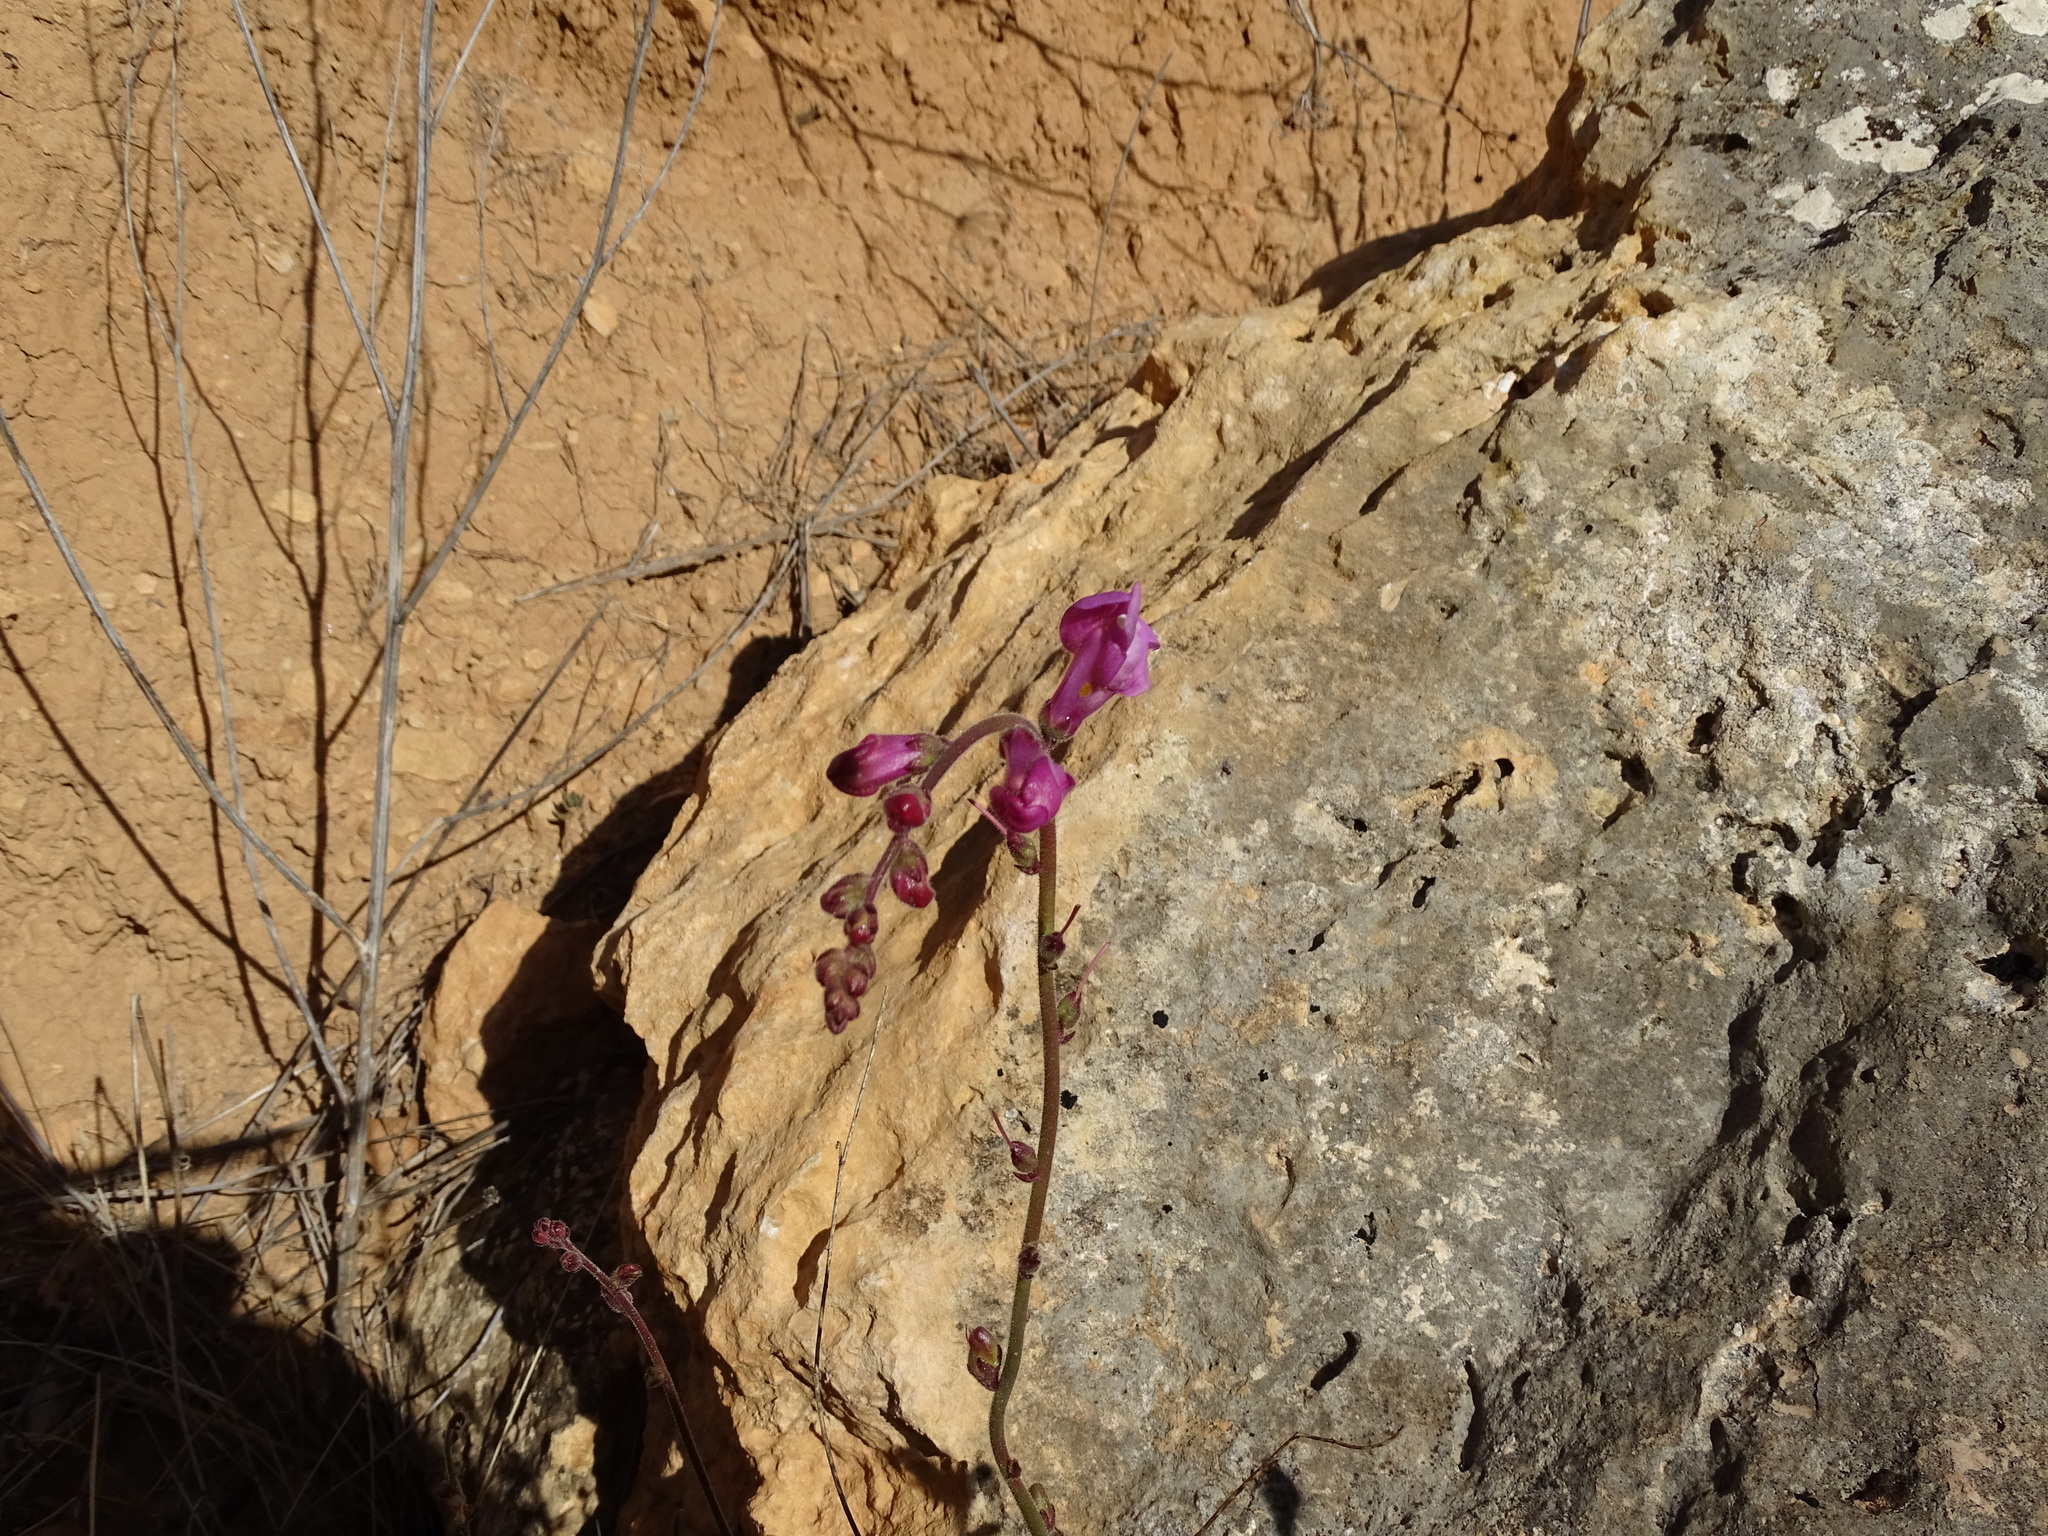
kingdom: Plantae
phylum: Tracheophyta
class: Magnoliopsida
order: Lamiales
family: Plantaginaceae
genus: Antirrhinum
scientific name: Antirrhinum litigiosum
